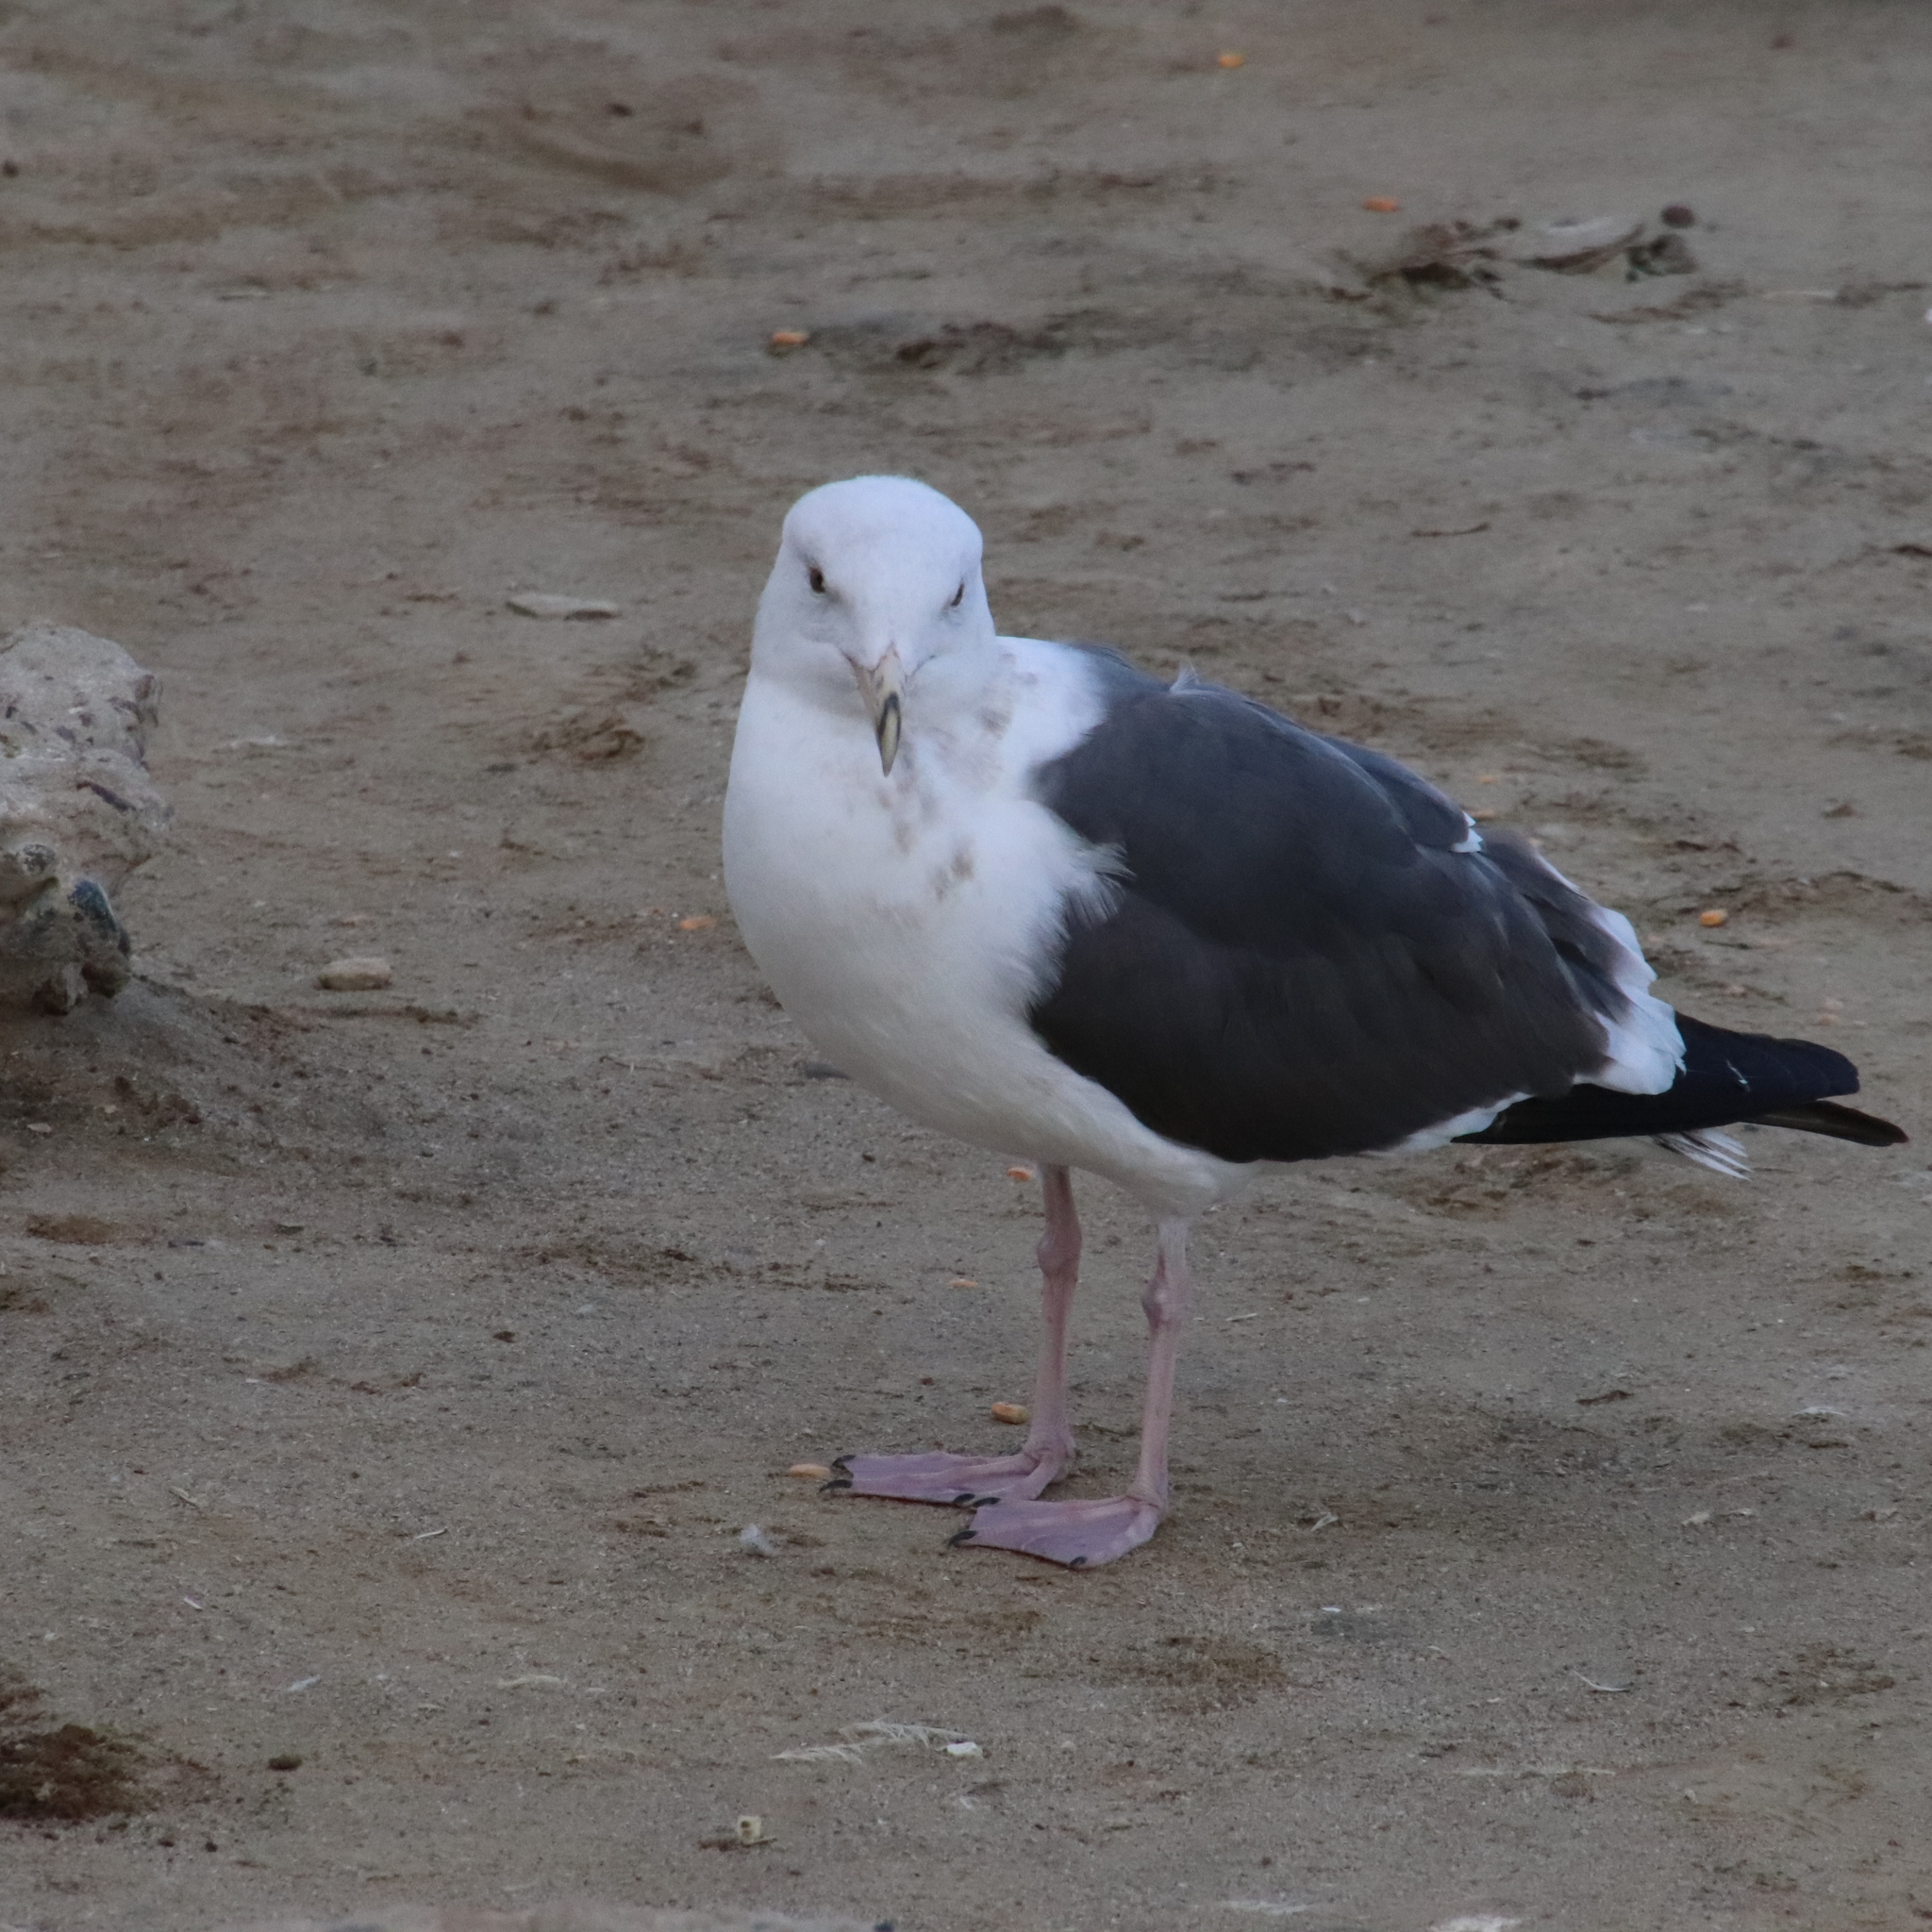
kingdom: Animalia
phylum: Chordata
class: Aves
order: Charadriiformes
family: Laridae
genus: Larus
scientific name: Larus occidentalis
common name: Western gull
